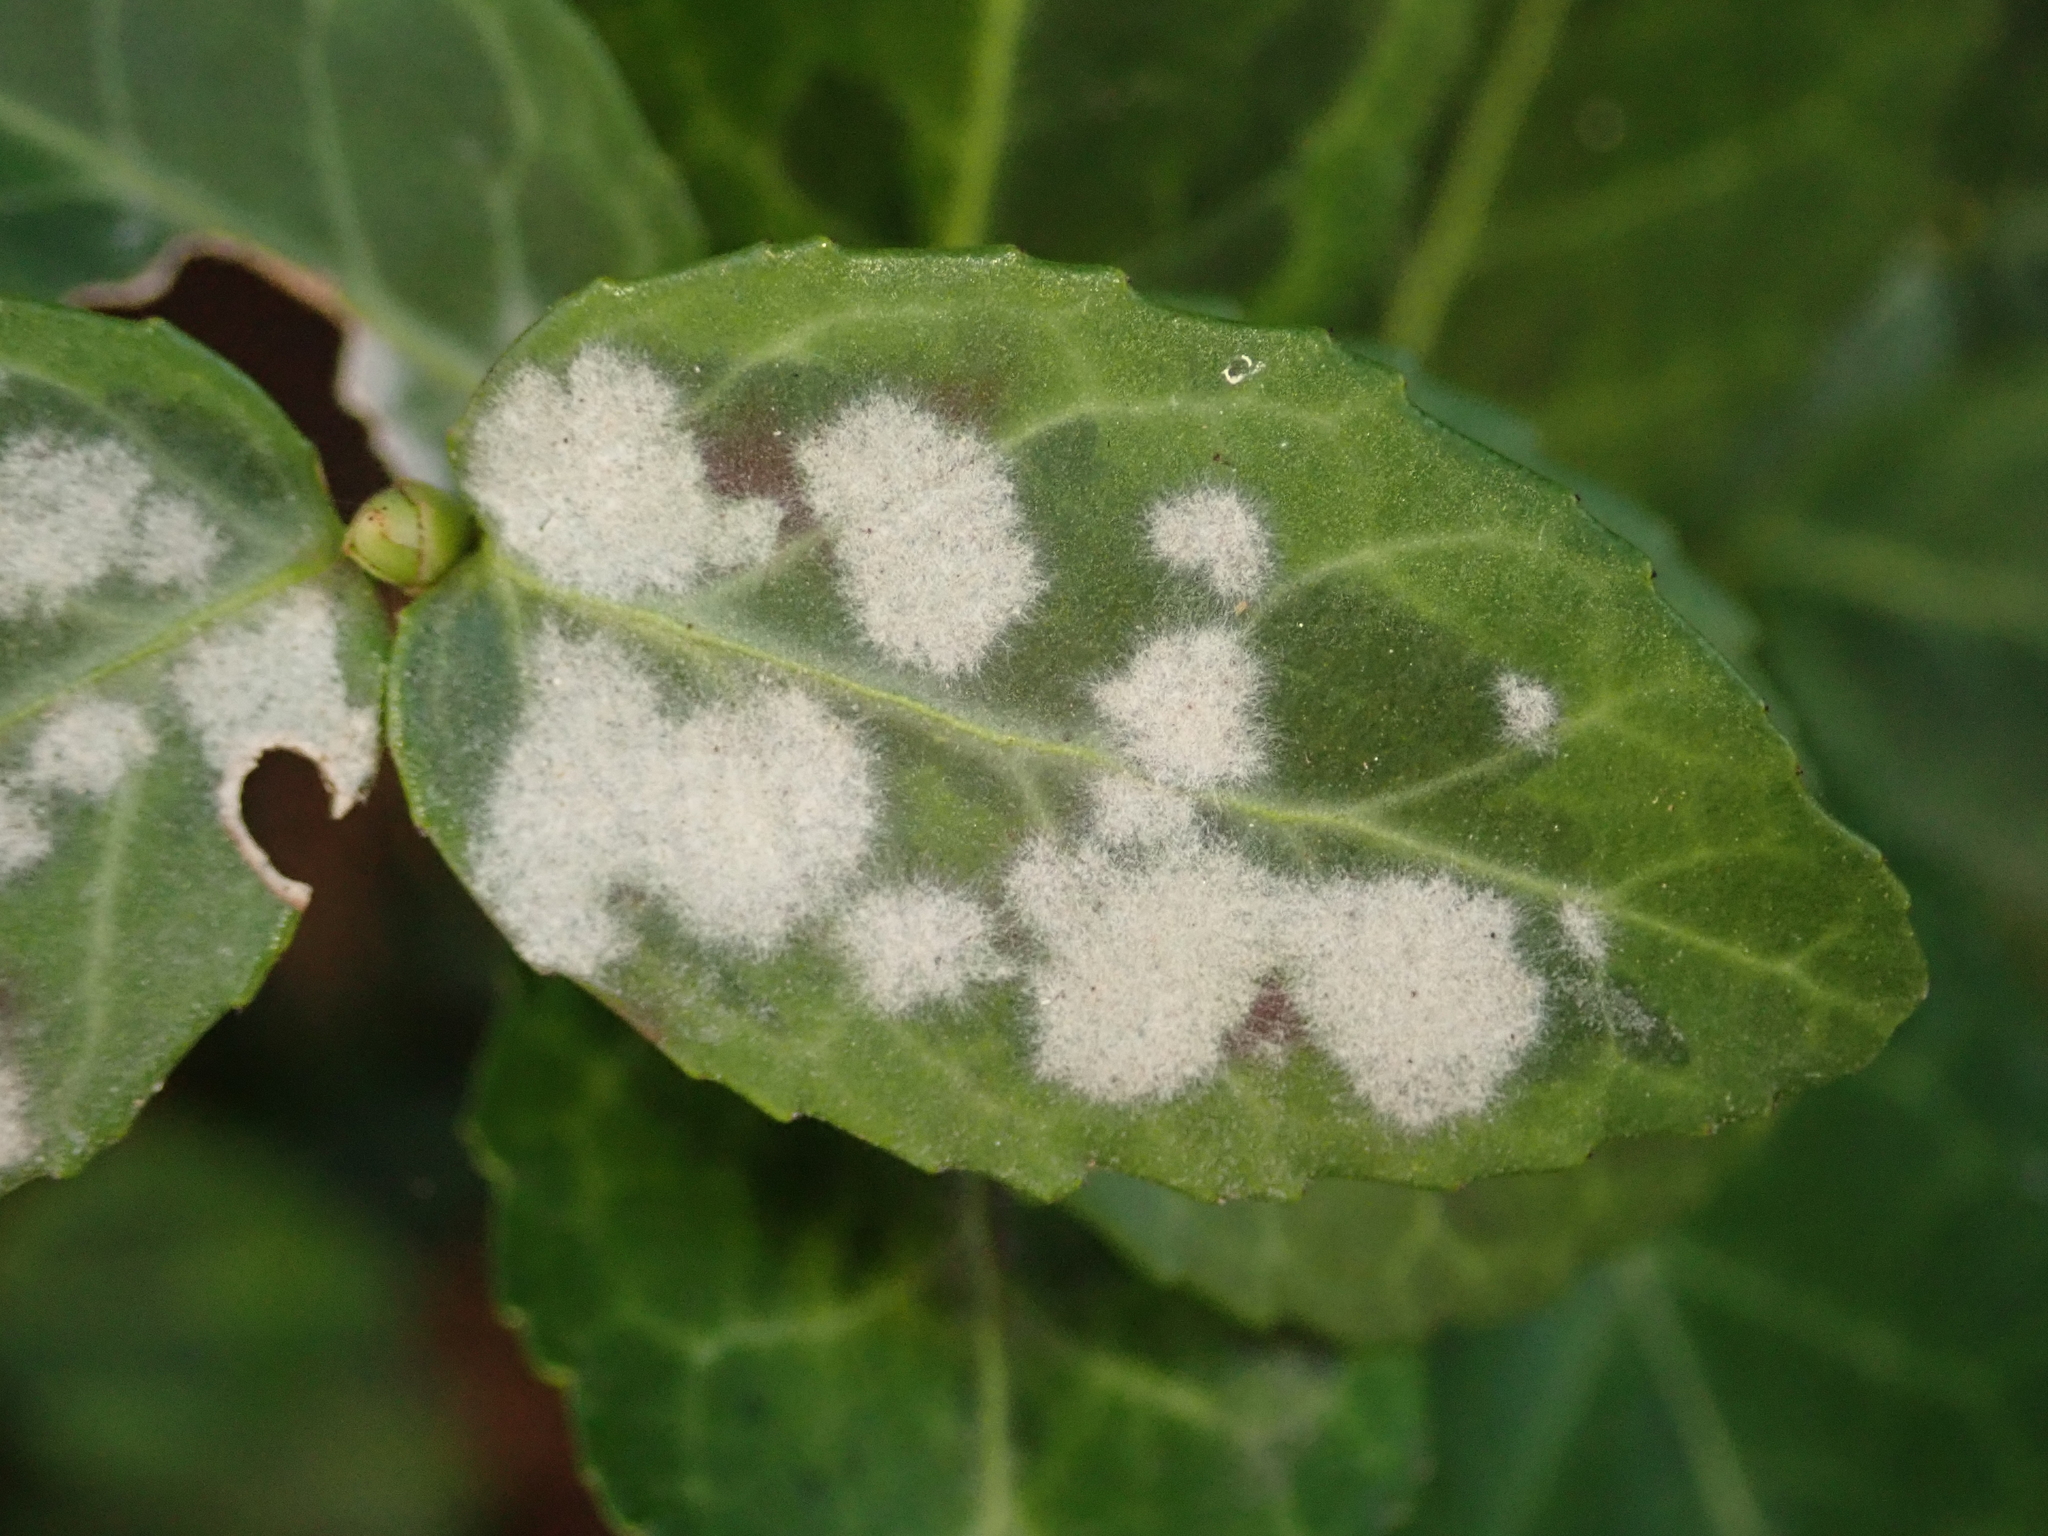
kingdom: Fungi
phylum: Ascomycota
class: Leotiomycetes
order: Helotiales
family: Erysiphaceae
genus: Erysiphe
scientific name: Erysiphe euonymicola
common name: Spindletree mildew
